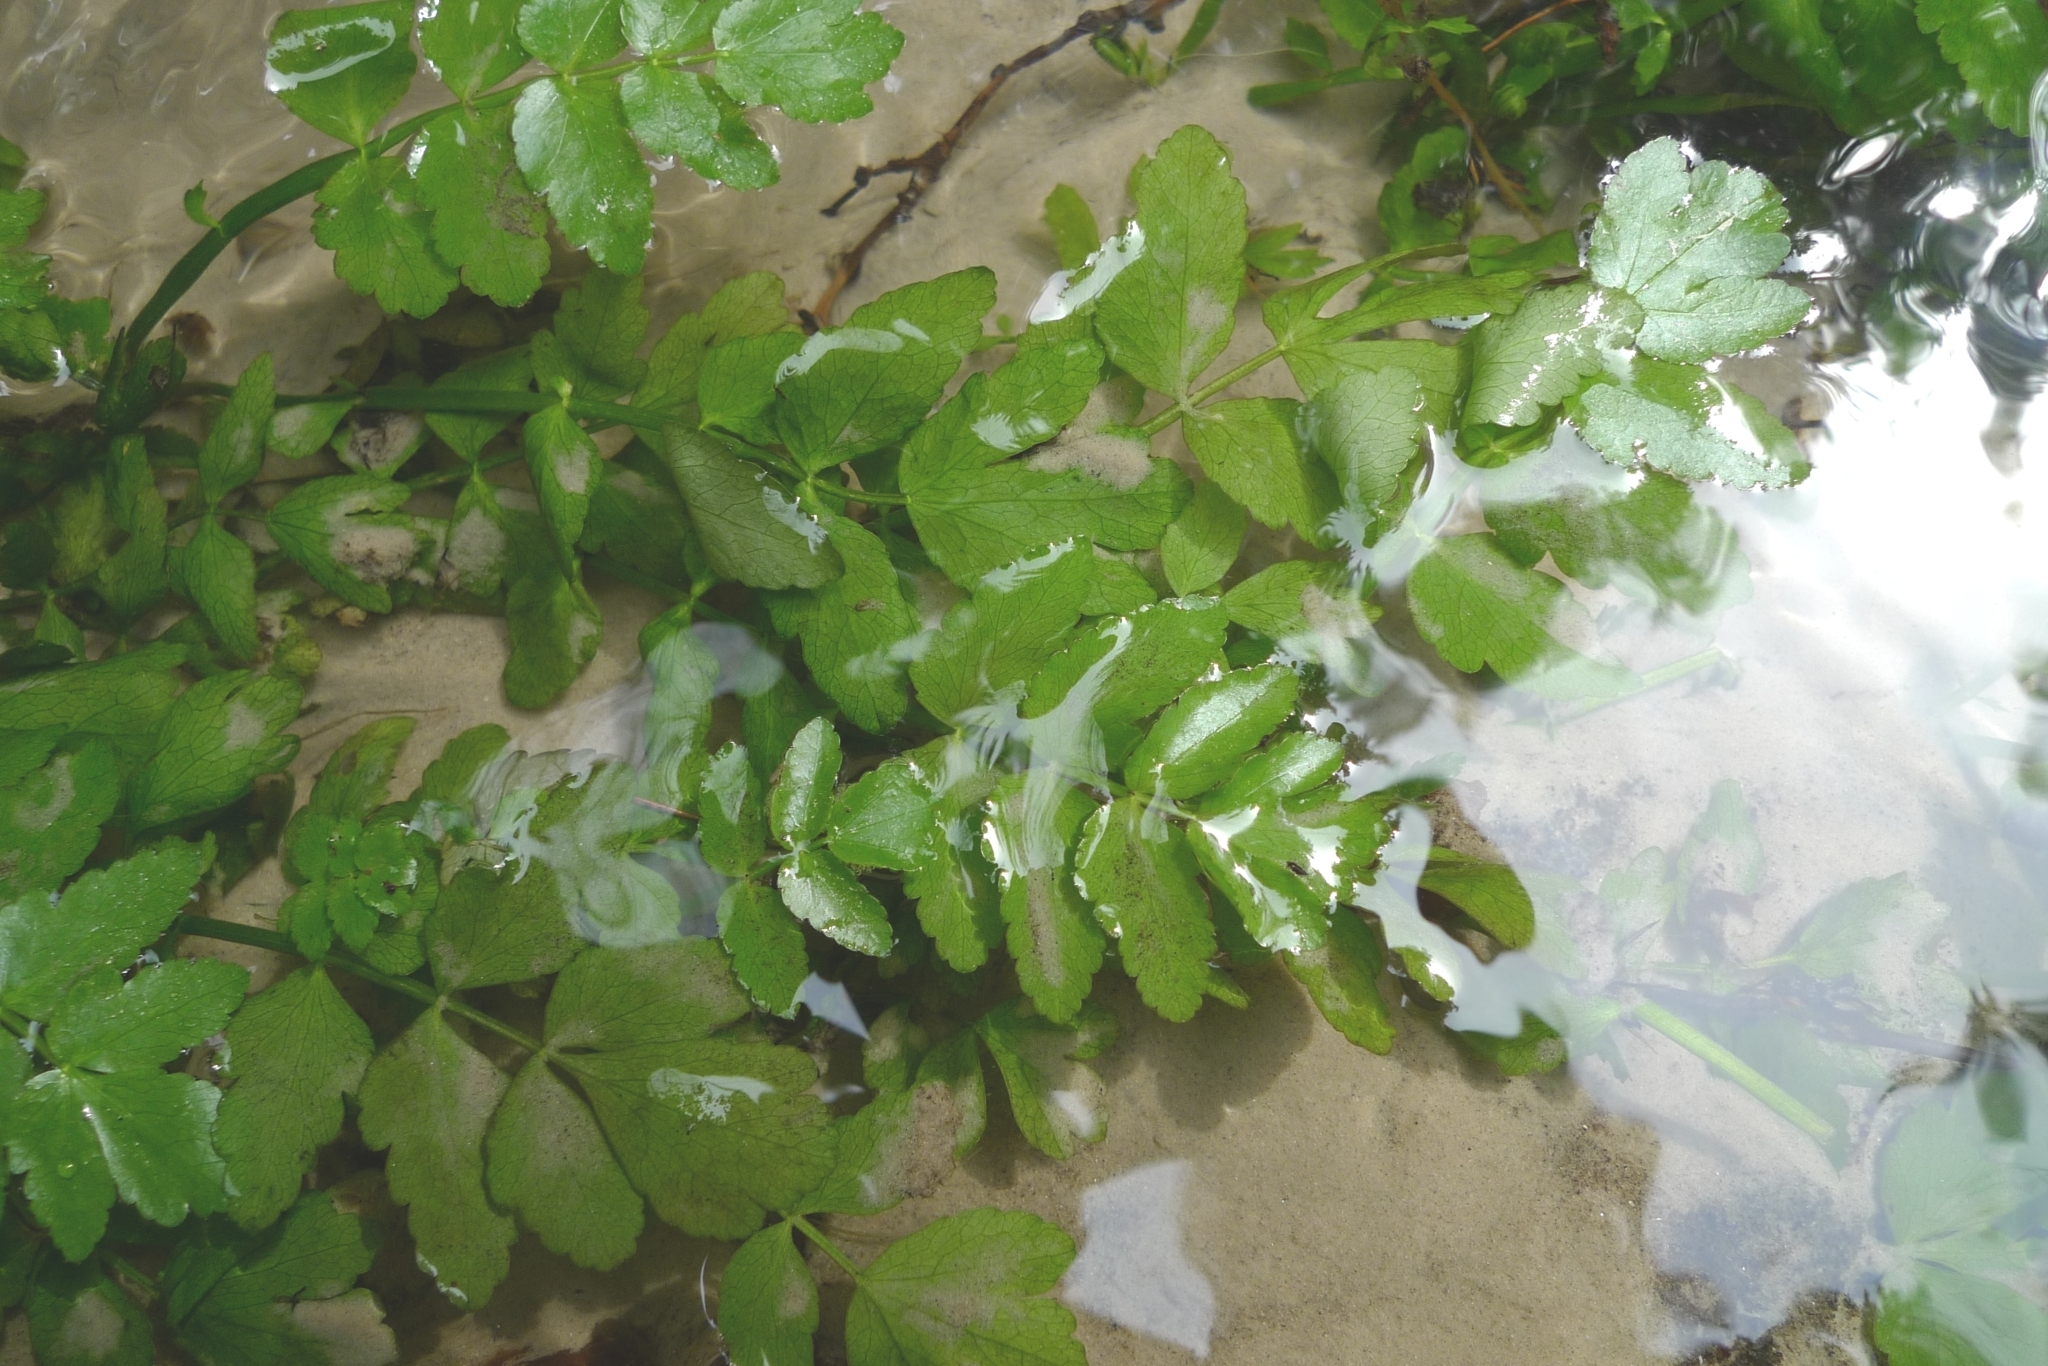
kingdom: Plantae
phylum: Tracheophyta
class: Magnoliopsida
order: Apiales
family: Apiaceae
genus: Berula
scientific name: Berula erecta
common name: Lesser water-parsnip
